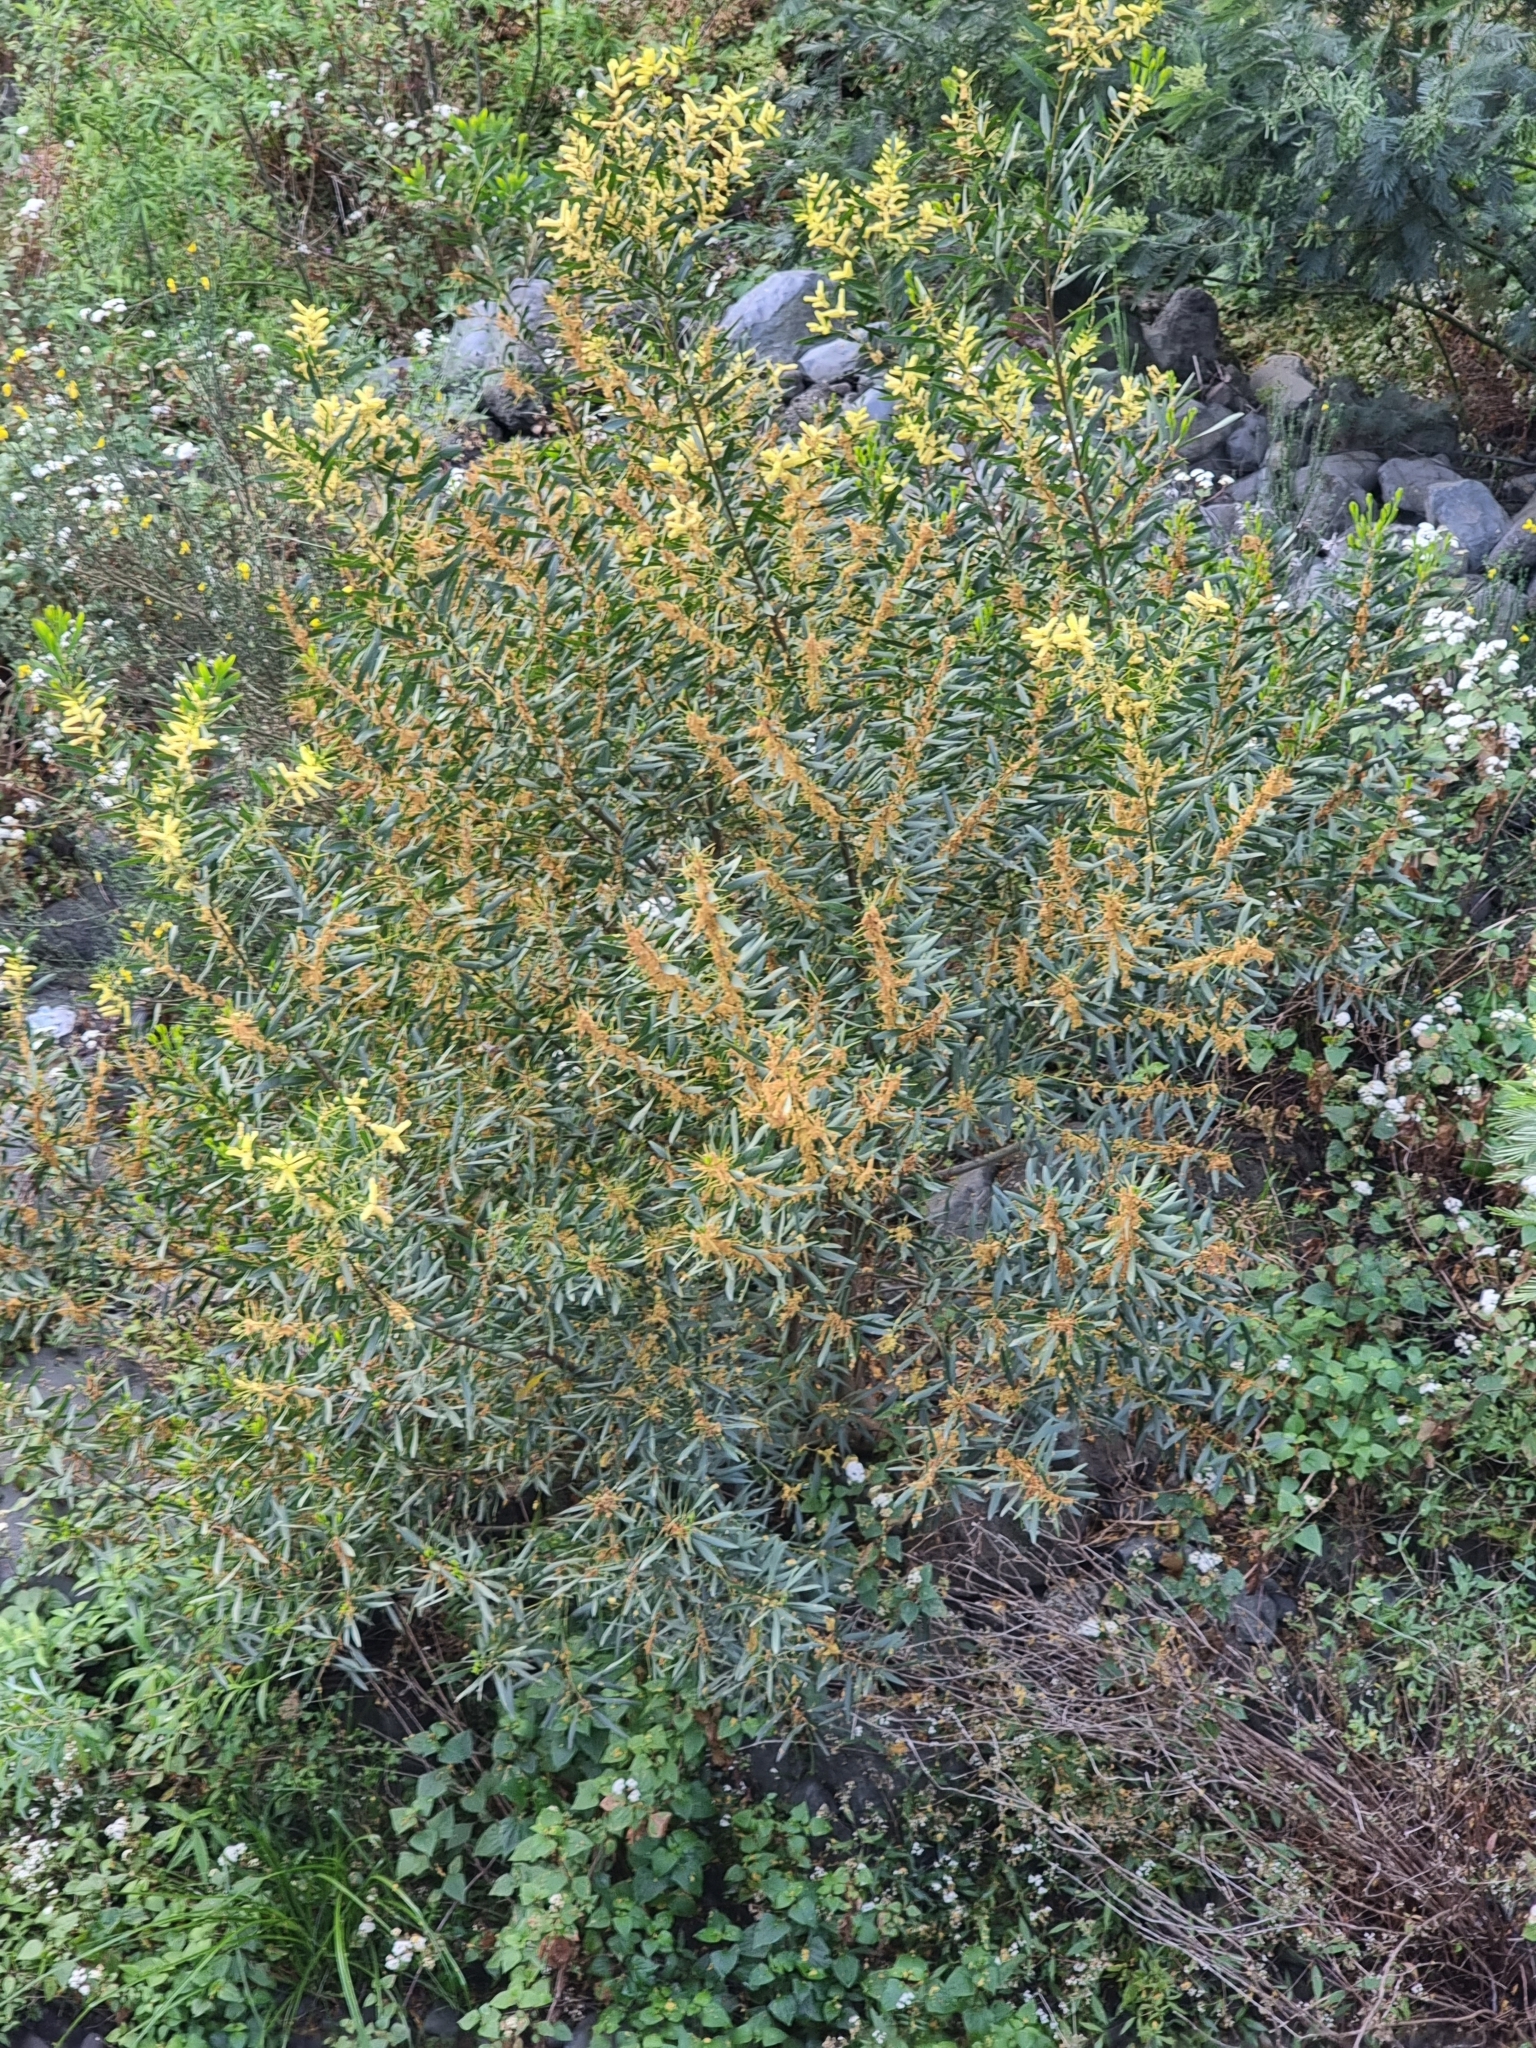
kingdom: Plantae
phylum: Tracheophyta
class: Magnoliopsida
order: Fabales
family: Fabaceae
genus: Acacia
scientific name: Acacia longifolia
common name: Sydney golden wattle
